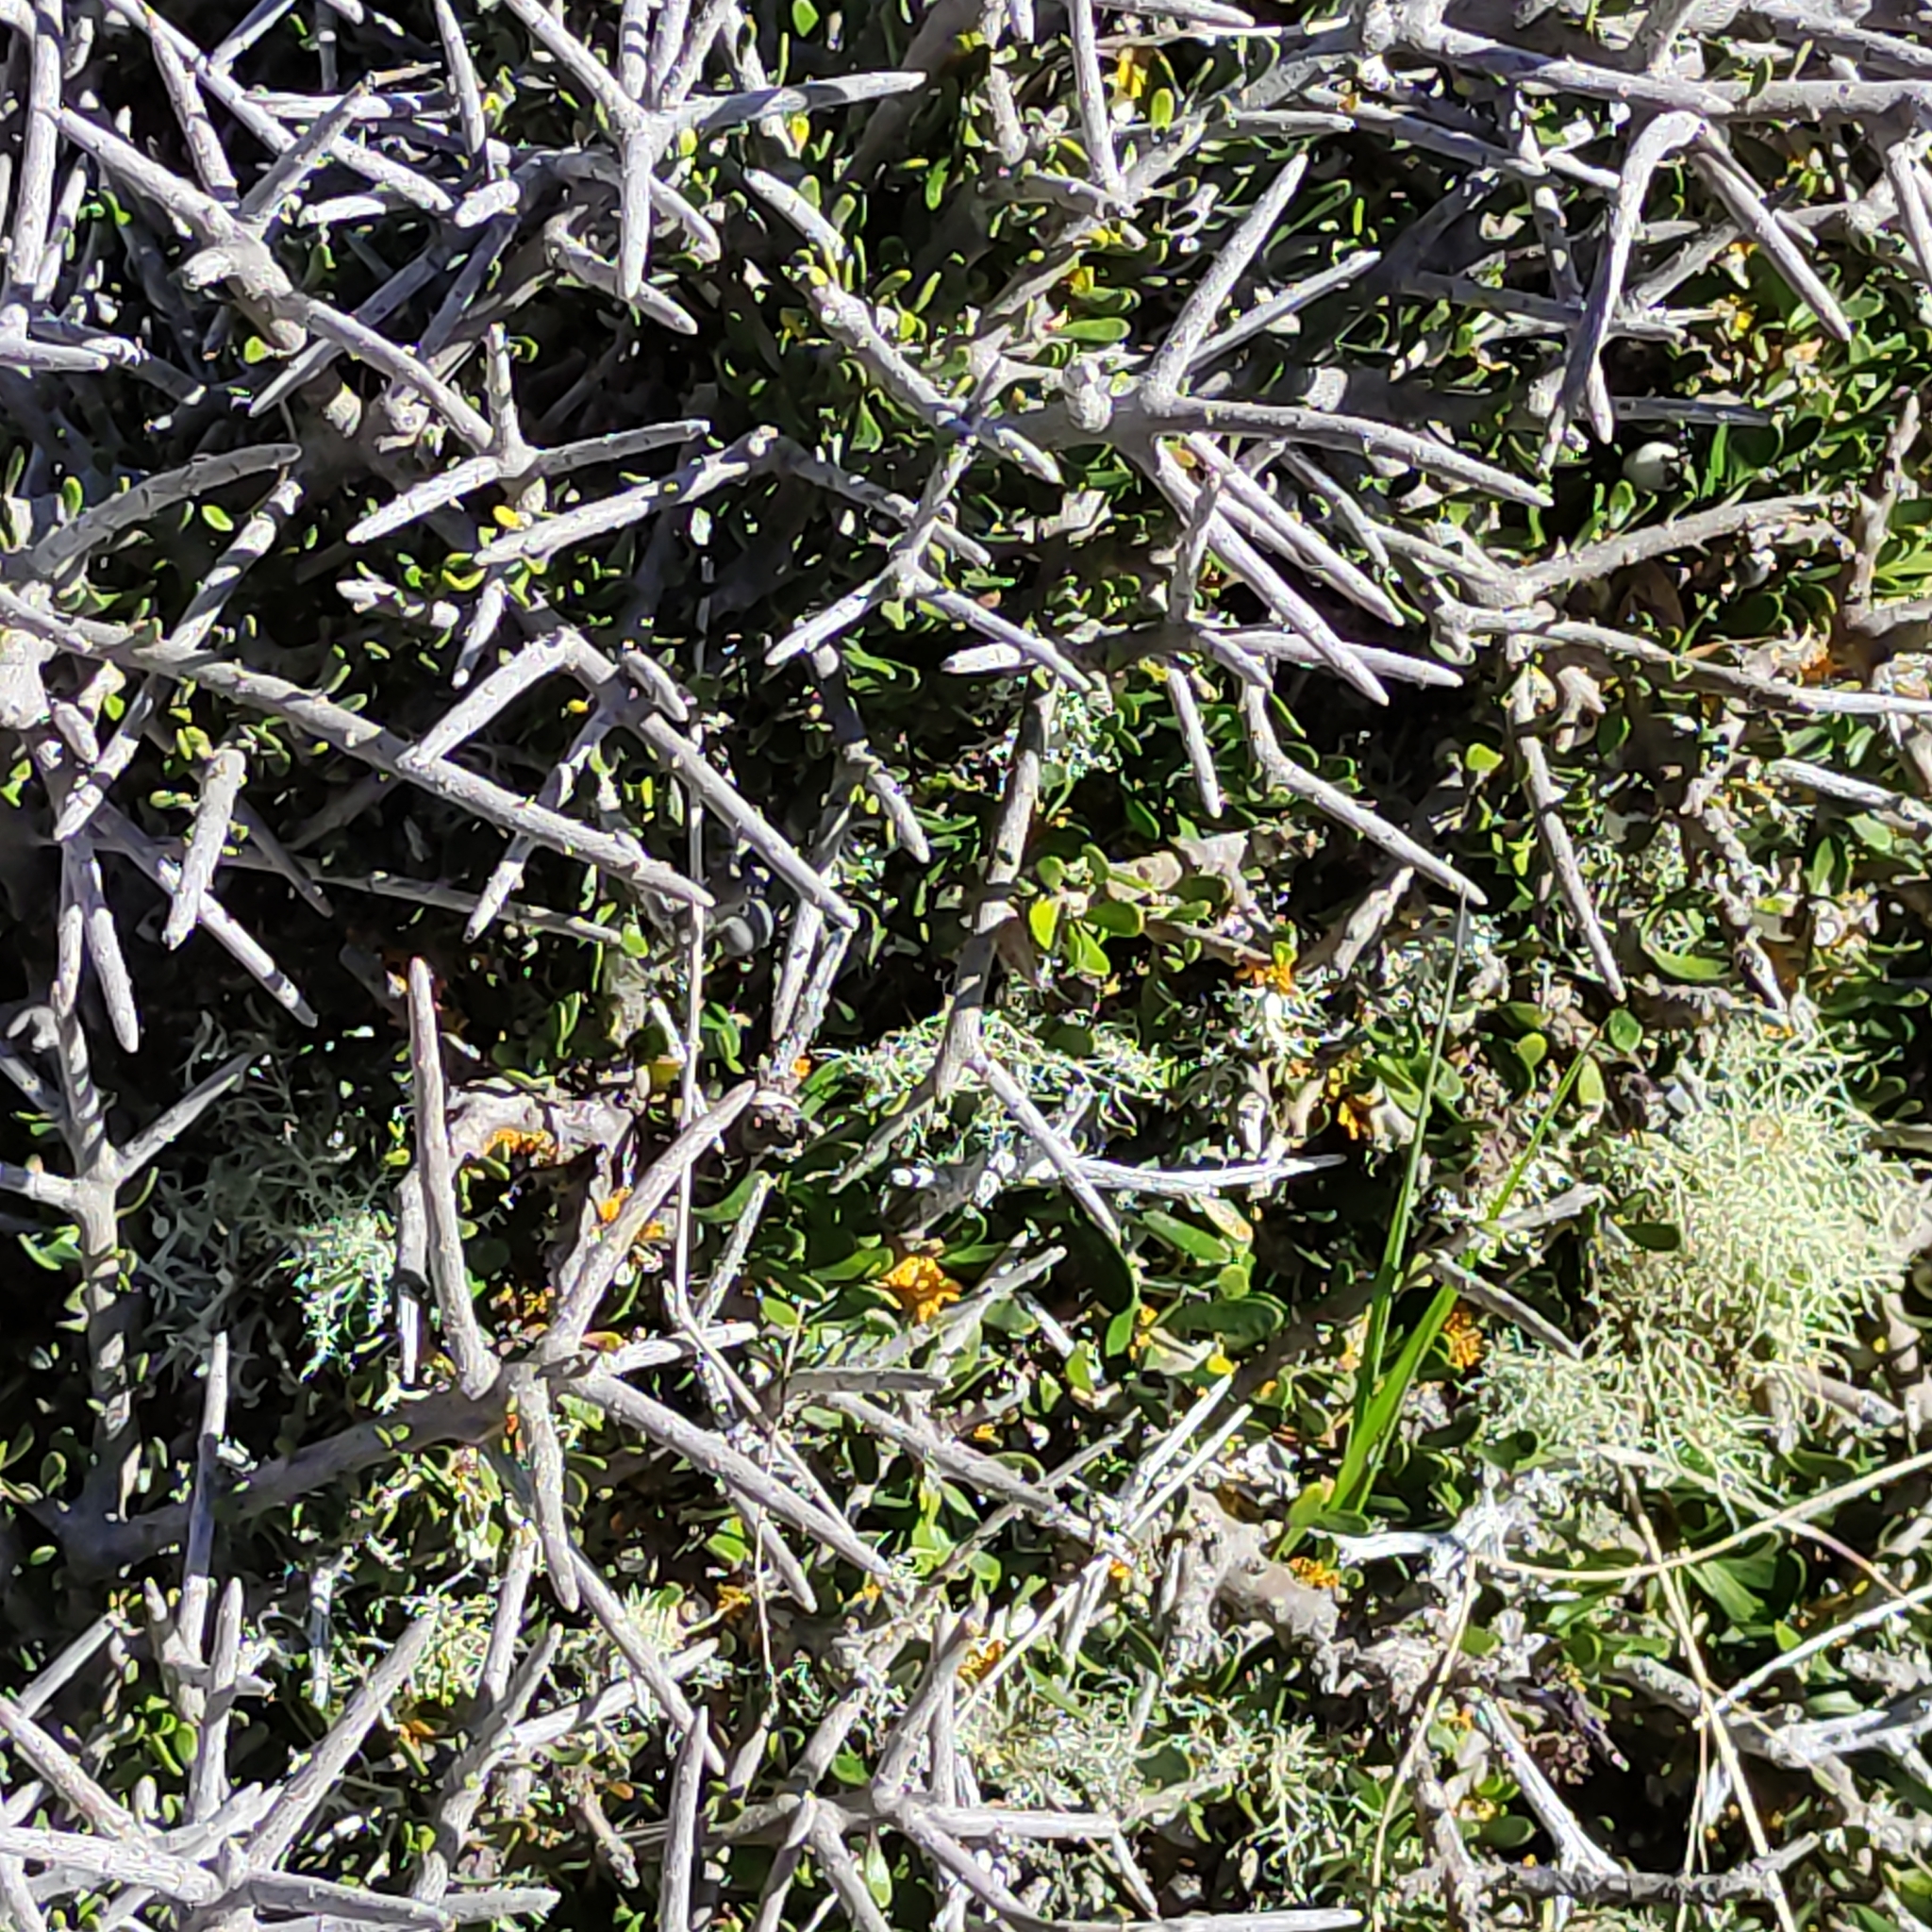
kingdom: Plantae
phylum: Tracheophyta
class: Magnoliopsida
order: Malpighiales
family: Violaceae
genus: Melicytus
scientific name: Melicytus alpinus
